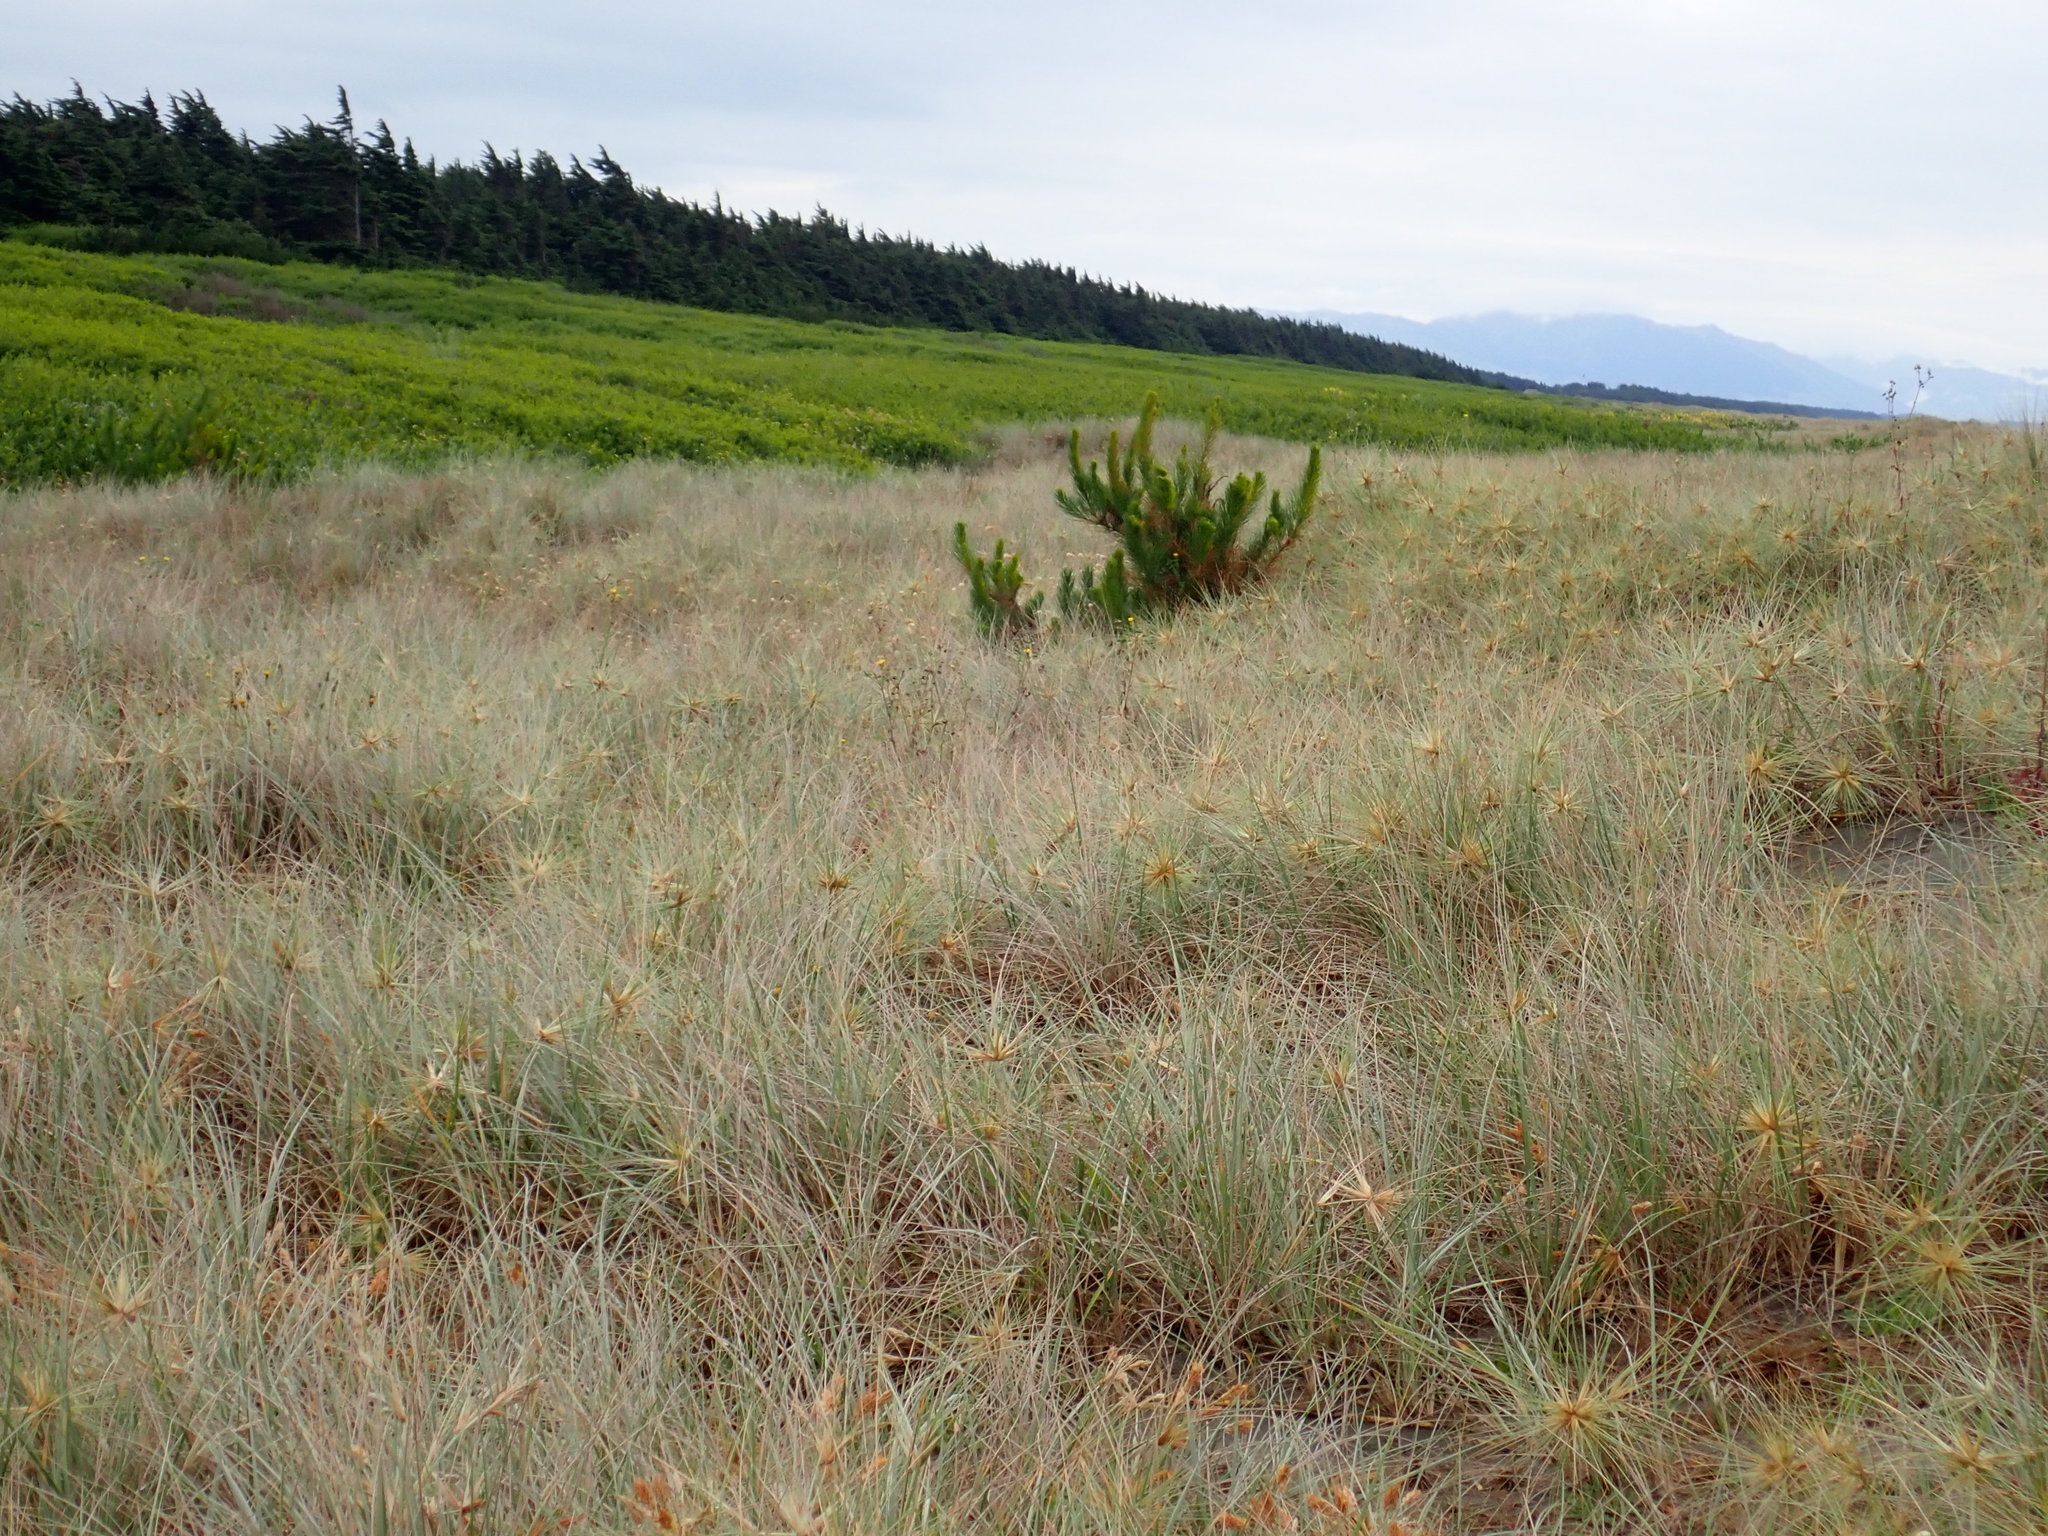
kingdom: Plantae
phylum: Tracheophyta
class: Pinopsida
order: Pinales
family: Pinaceae
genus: Pinus
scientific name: Pinus radiata
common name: Monterey pine
